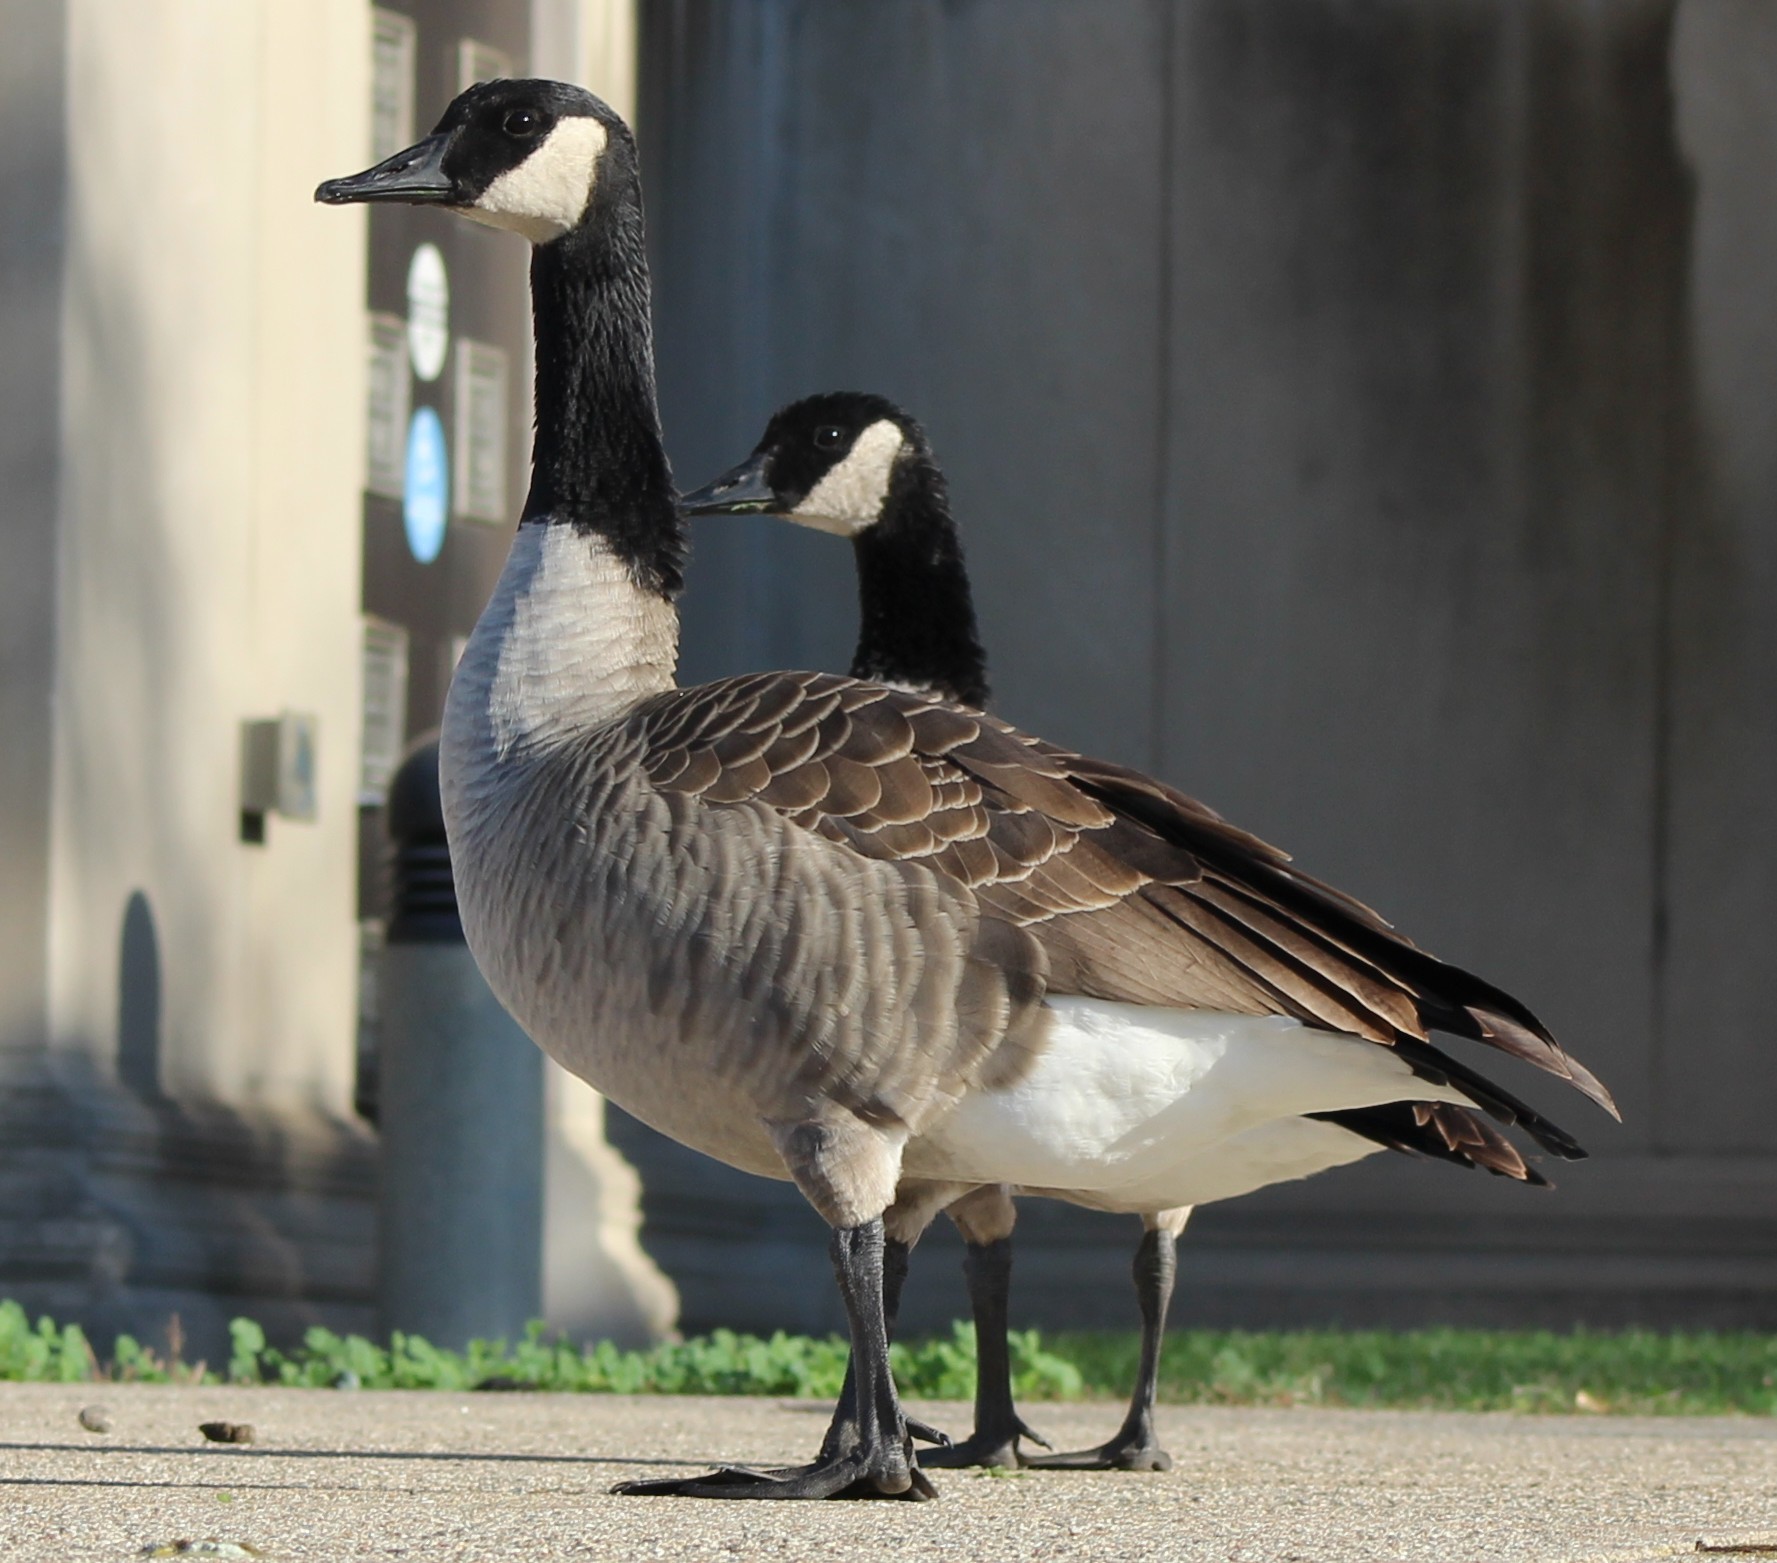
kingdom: Animalia
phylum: Chordata
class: Aves
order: Anseriformes
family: Anatidae
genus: Branta
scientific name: Branta canadensis
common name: Canada goose
